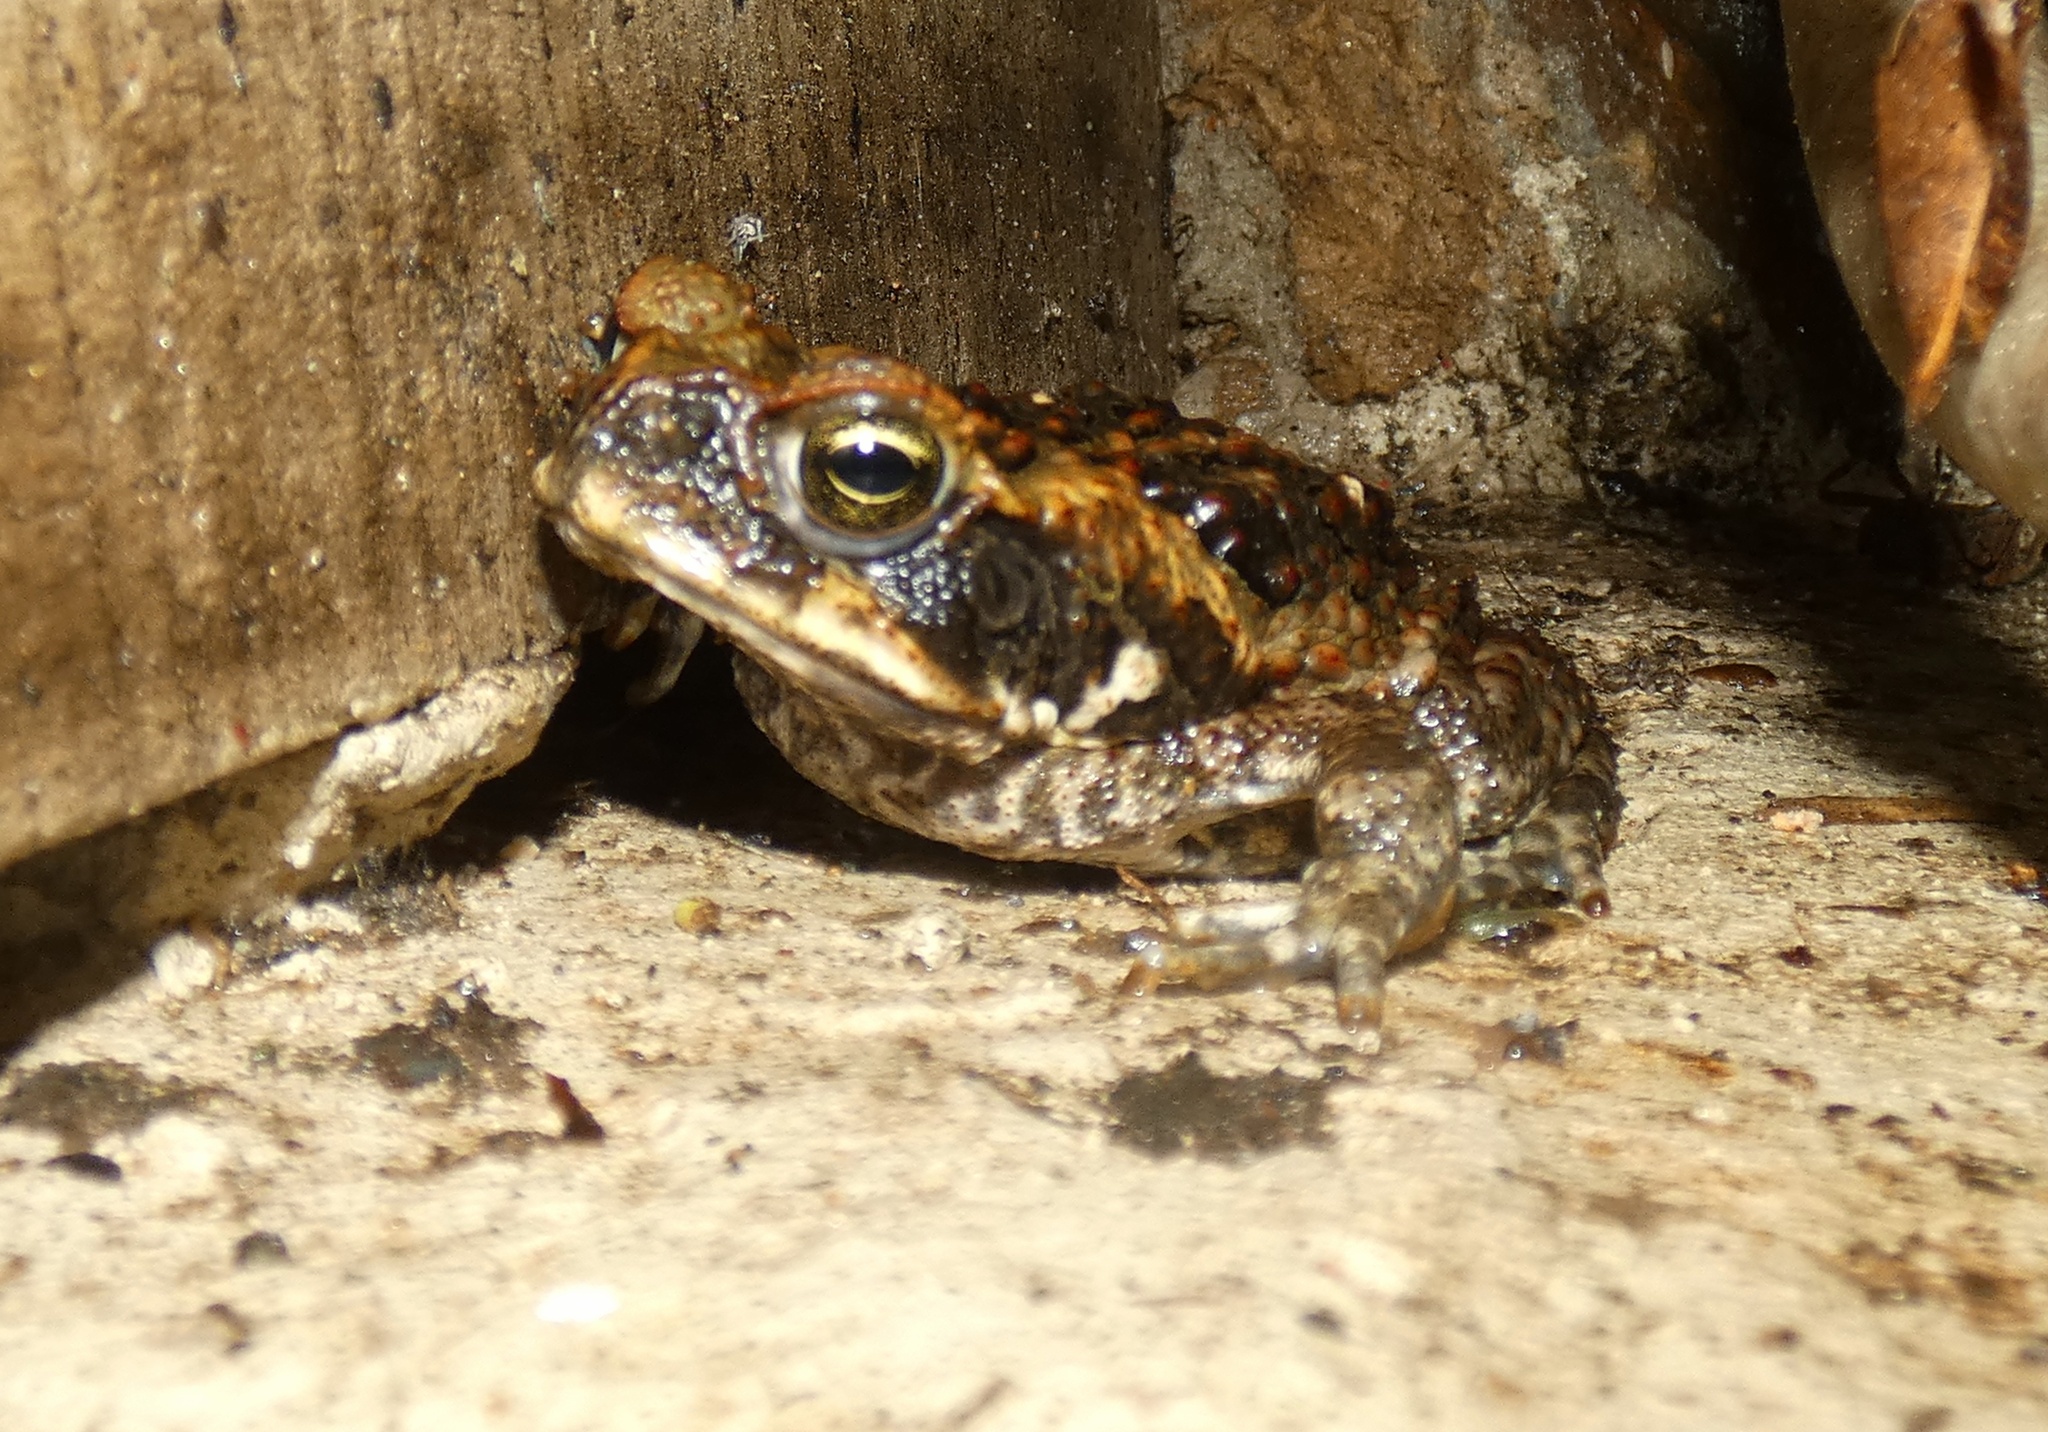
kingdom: Animalia
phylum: Chordata
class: Amphibia
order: Anura
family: Bufonidae
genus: Rhinella
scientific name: Rhinella marina
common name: Cane toad
